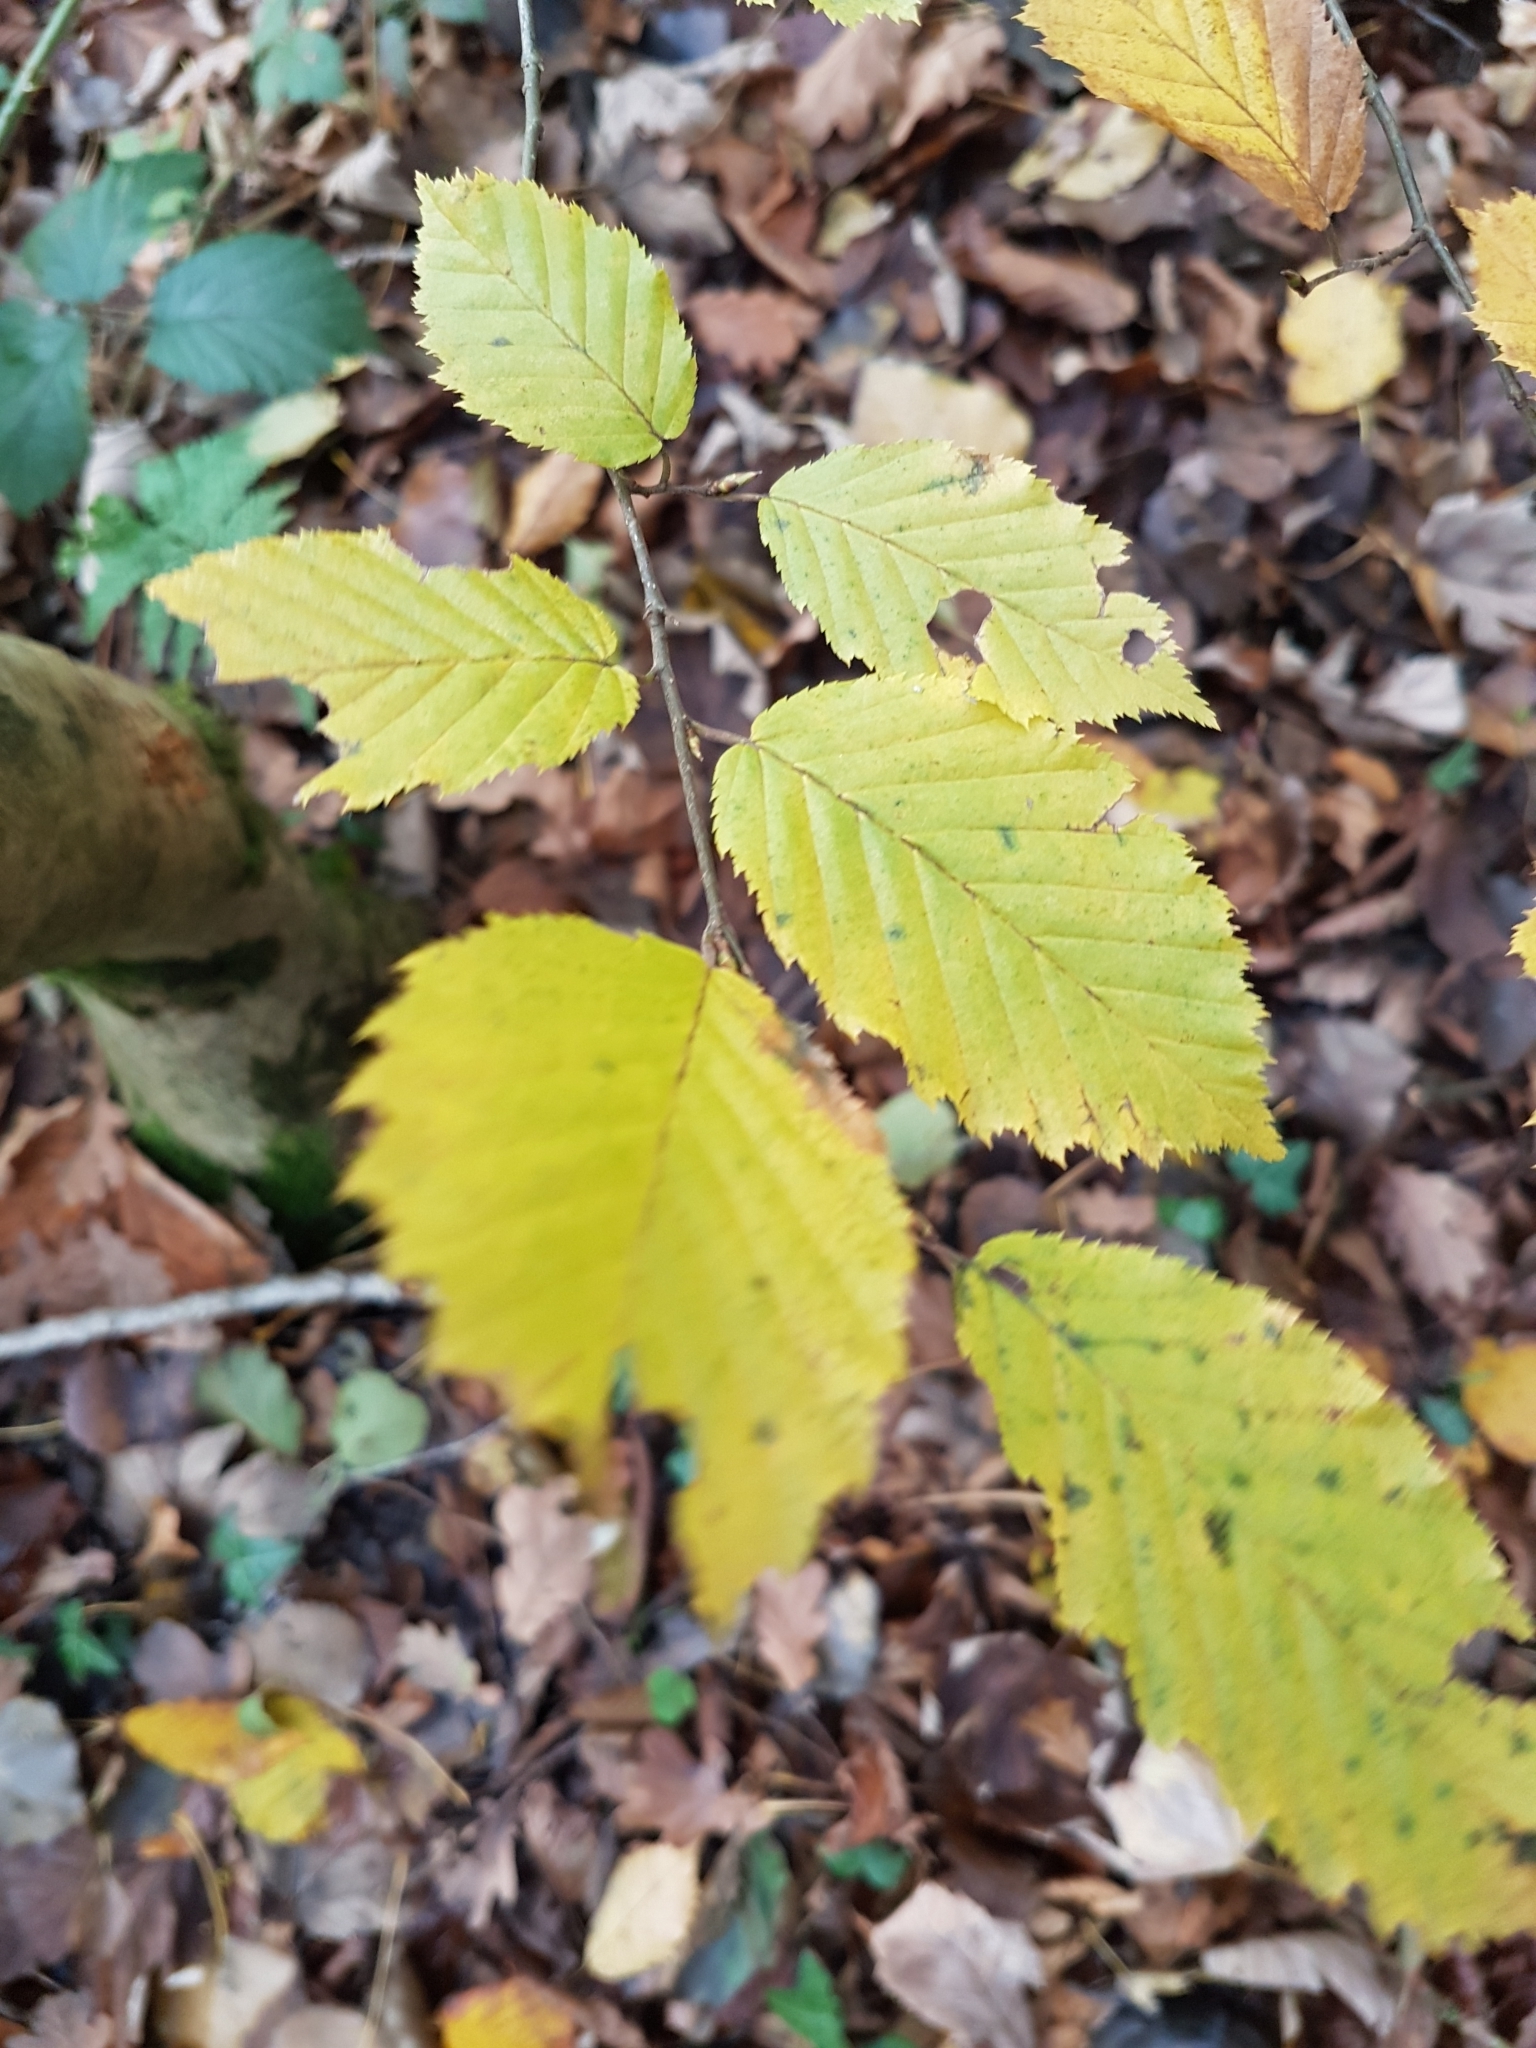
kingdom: Plantae
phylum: Tracheophyta
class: Magnoliopsida
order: Fagales
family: Betulaceae
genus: Carpinus
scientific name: Carpinus betulus
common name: Hornbeam
